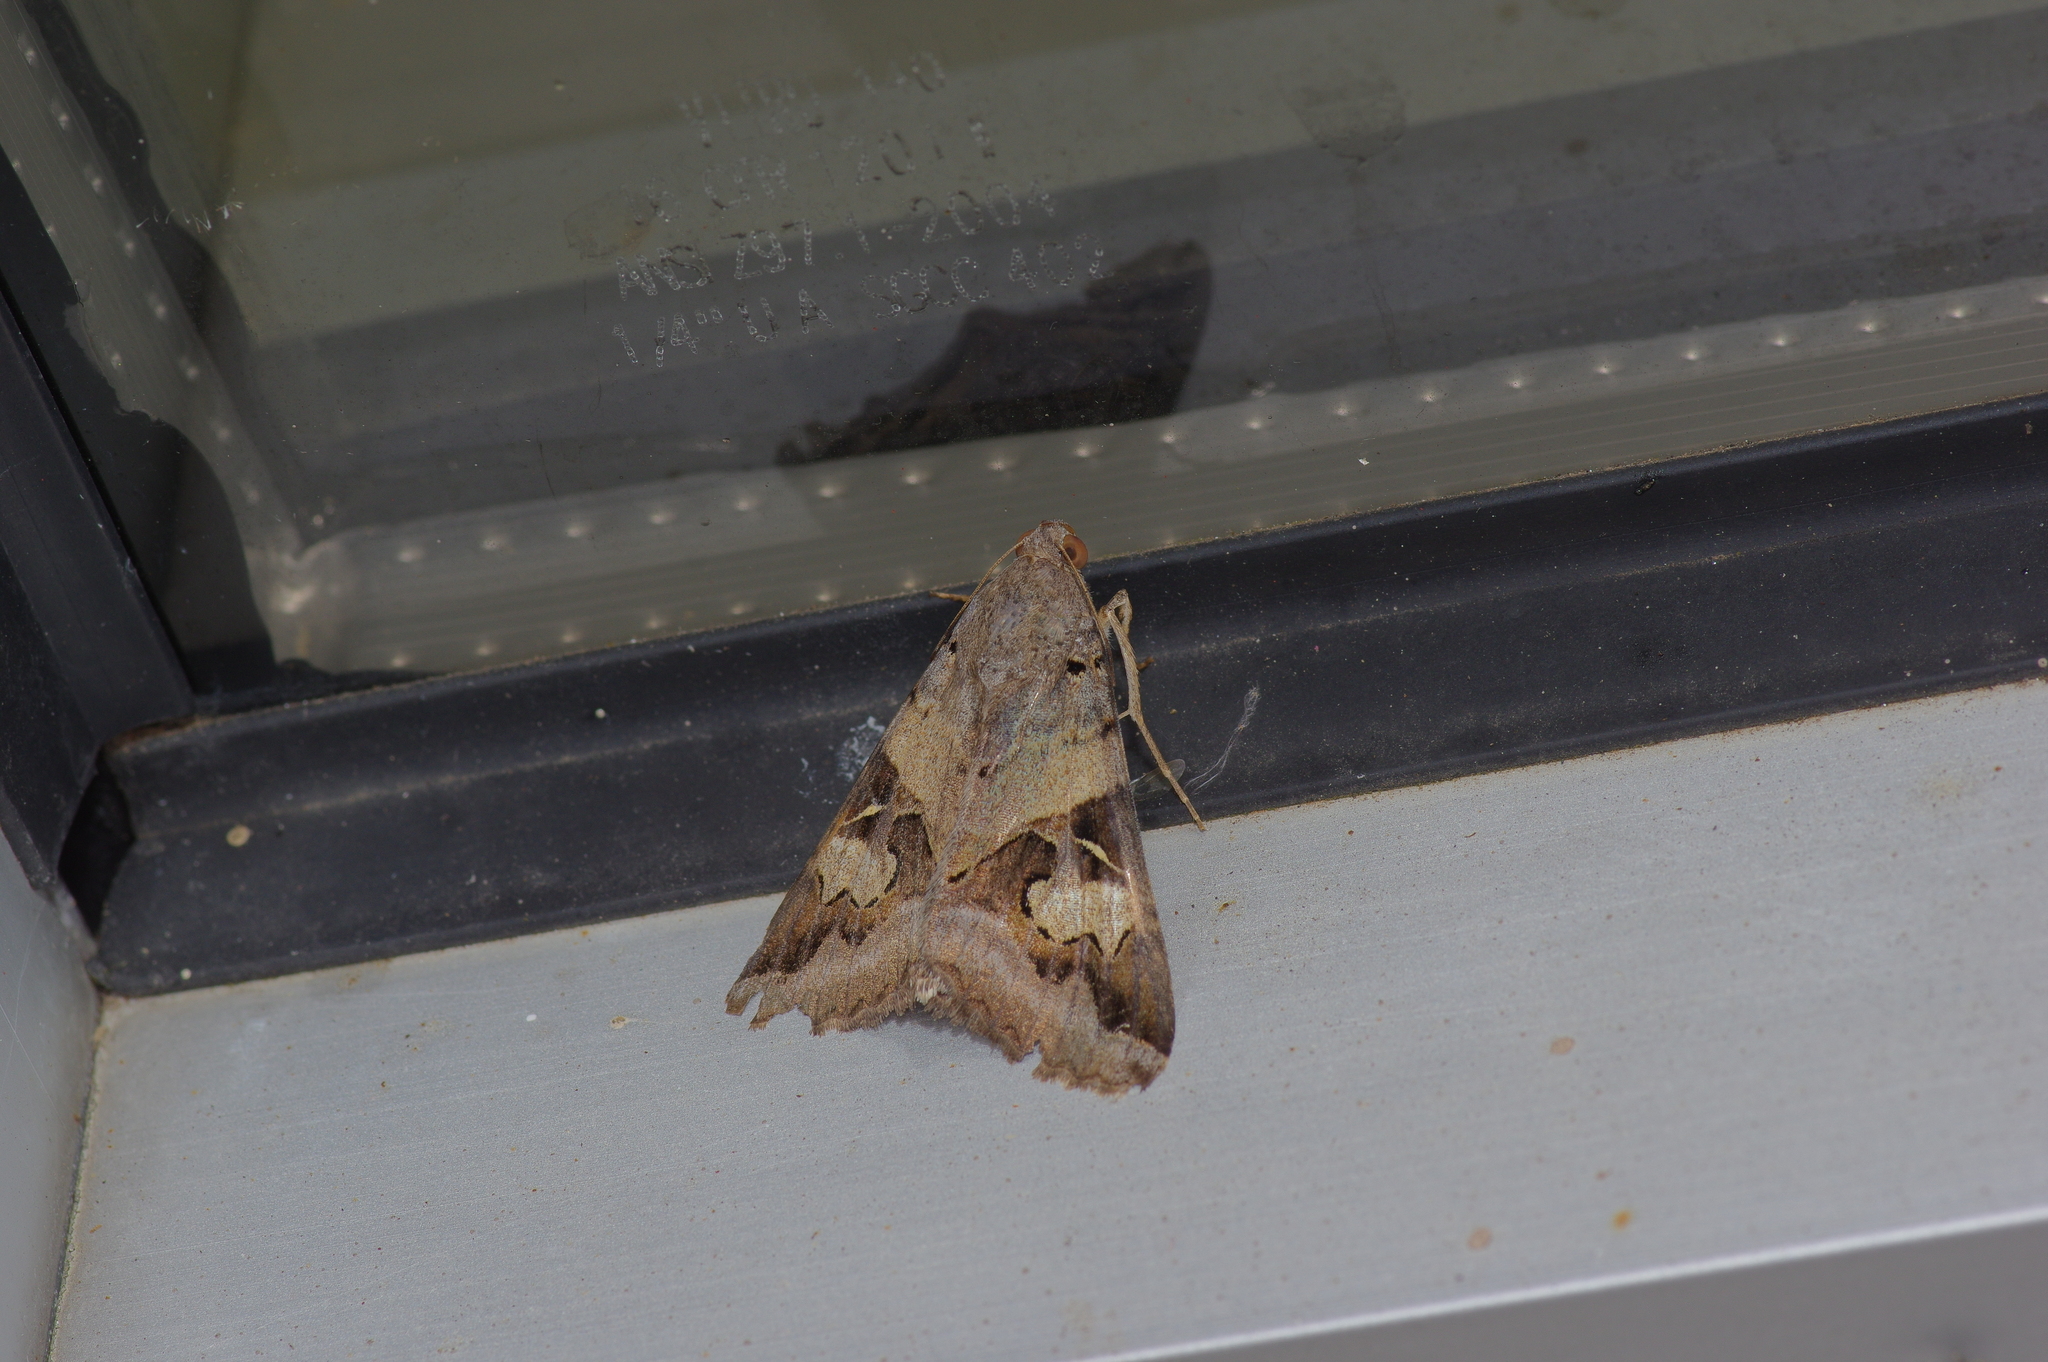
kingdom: Animalia
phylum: Arthropoda
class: Insecta
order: Lepidoptera
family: Erebidae
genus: Melipotis
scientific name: Melipotis indomita
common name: Moth
